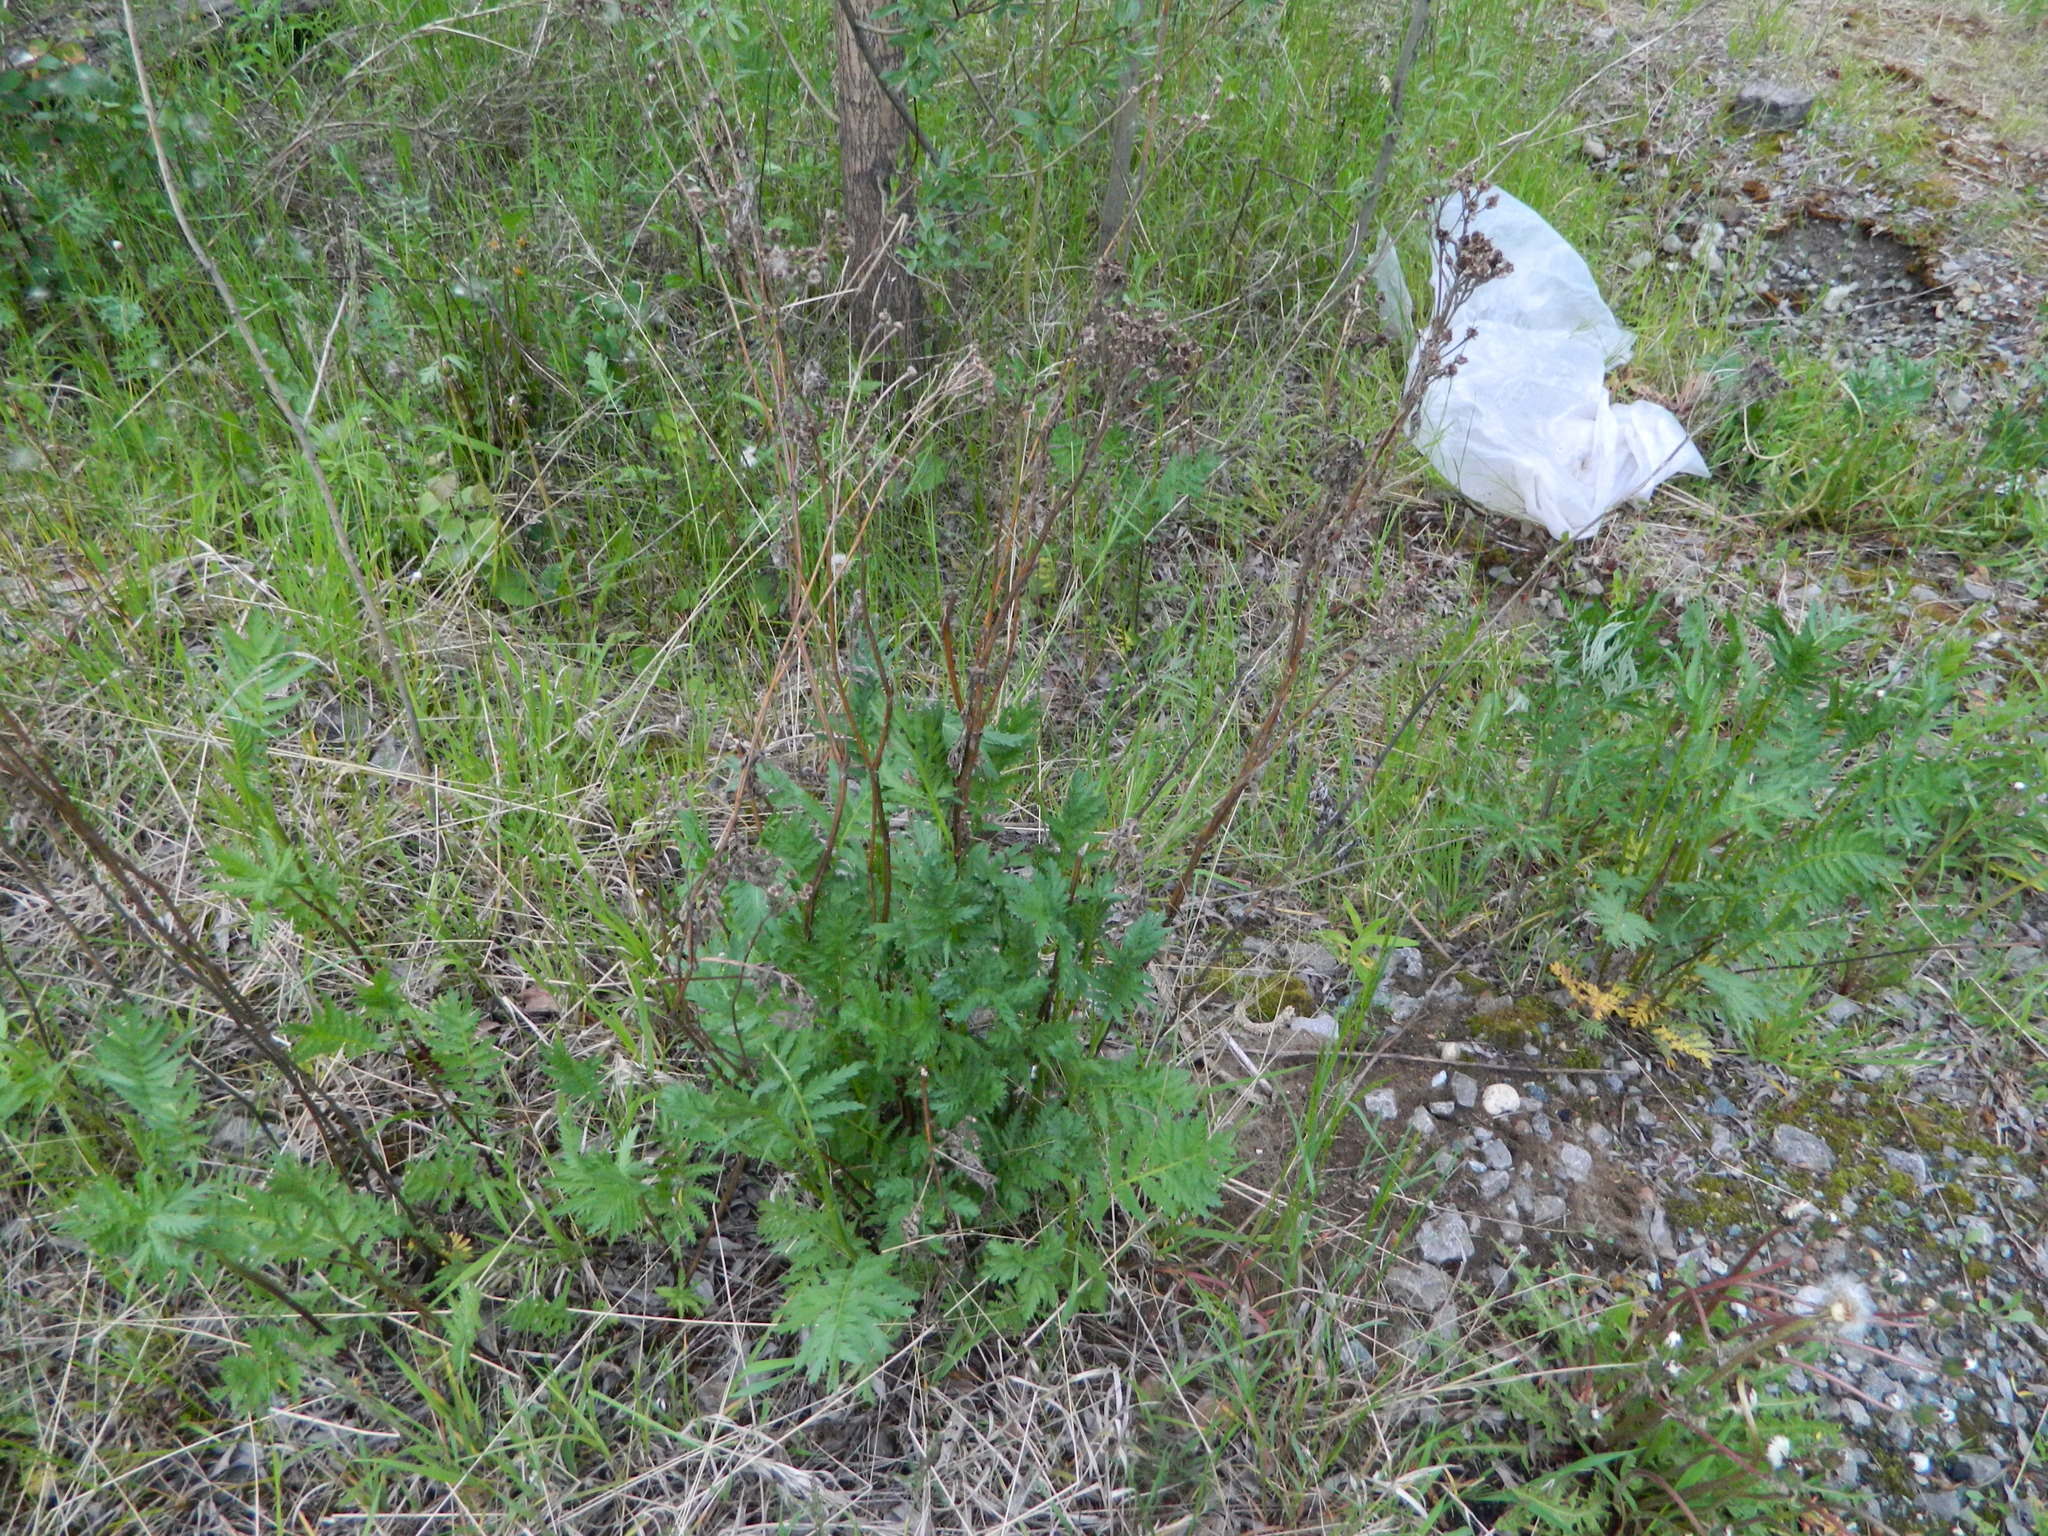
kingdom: Plantae
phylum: Tracheophyta
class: Magnoliopsida
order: Asterales
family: Asteraceae
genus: Tanacetum
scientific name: Tanacetum vulgare
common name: Common tansy
